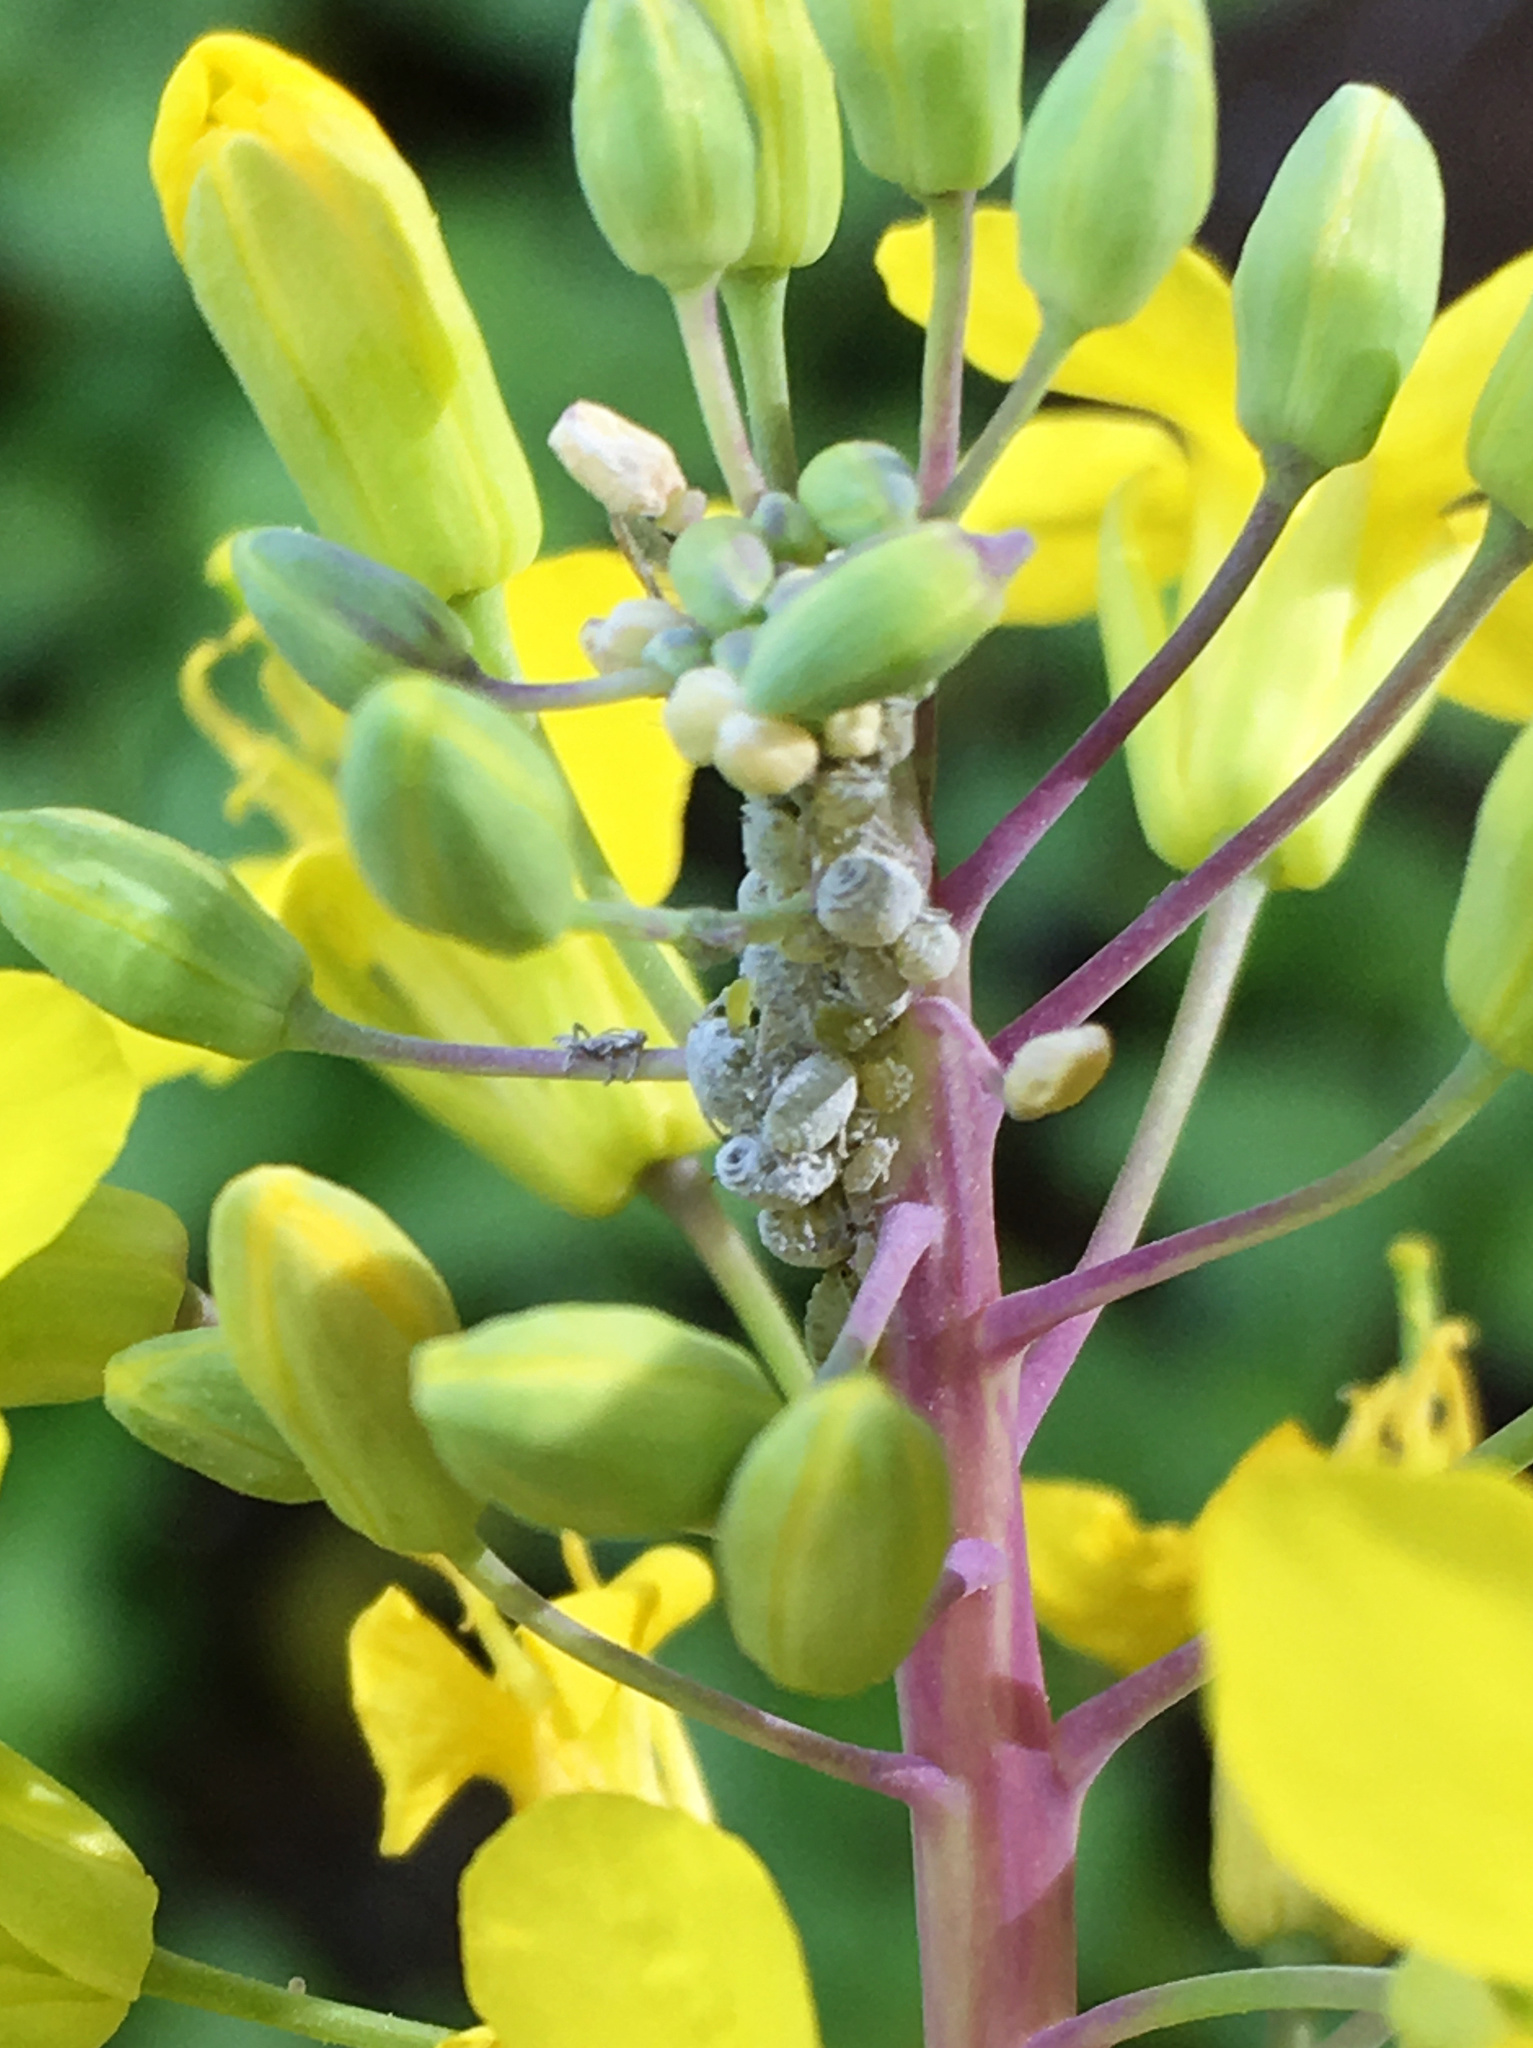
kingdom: Animalia
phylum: Arthropoda
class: Insecta
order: Hemiptera
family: Aphididae
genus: Brevicoryne
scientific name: Brevicoryne brassicae
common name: Cabbage aphid
